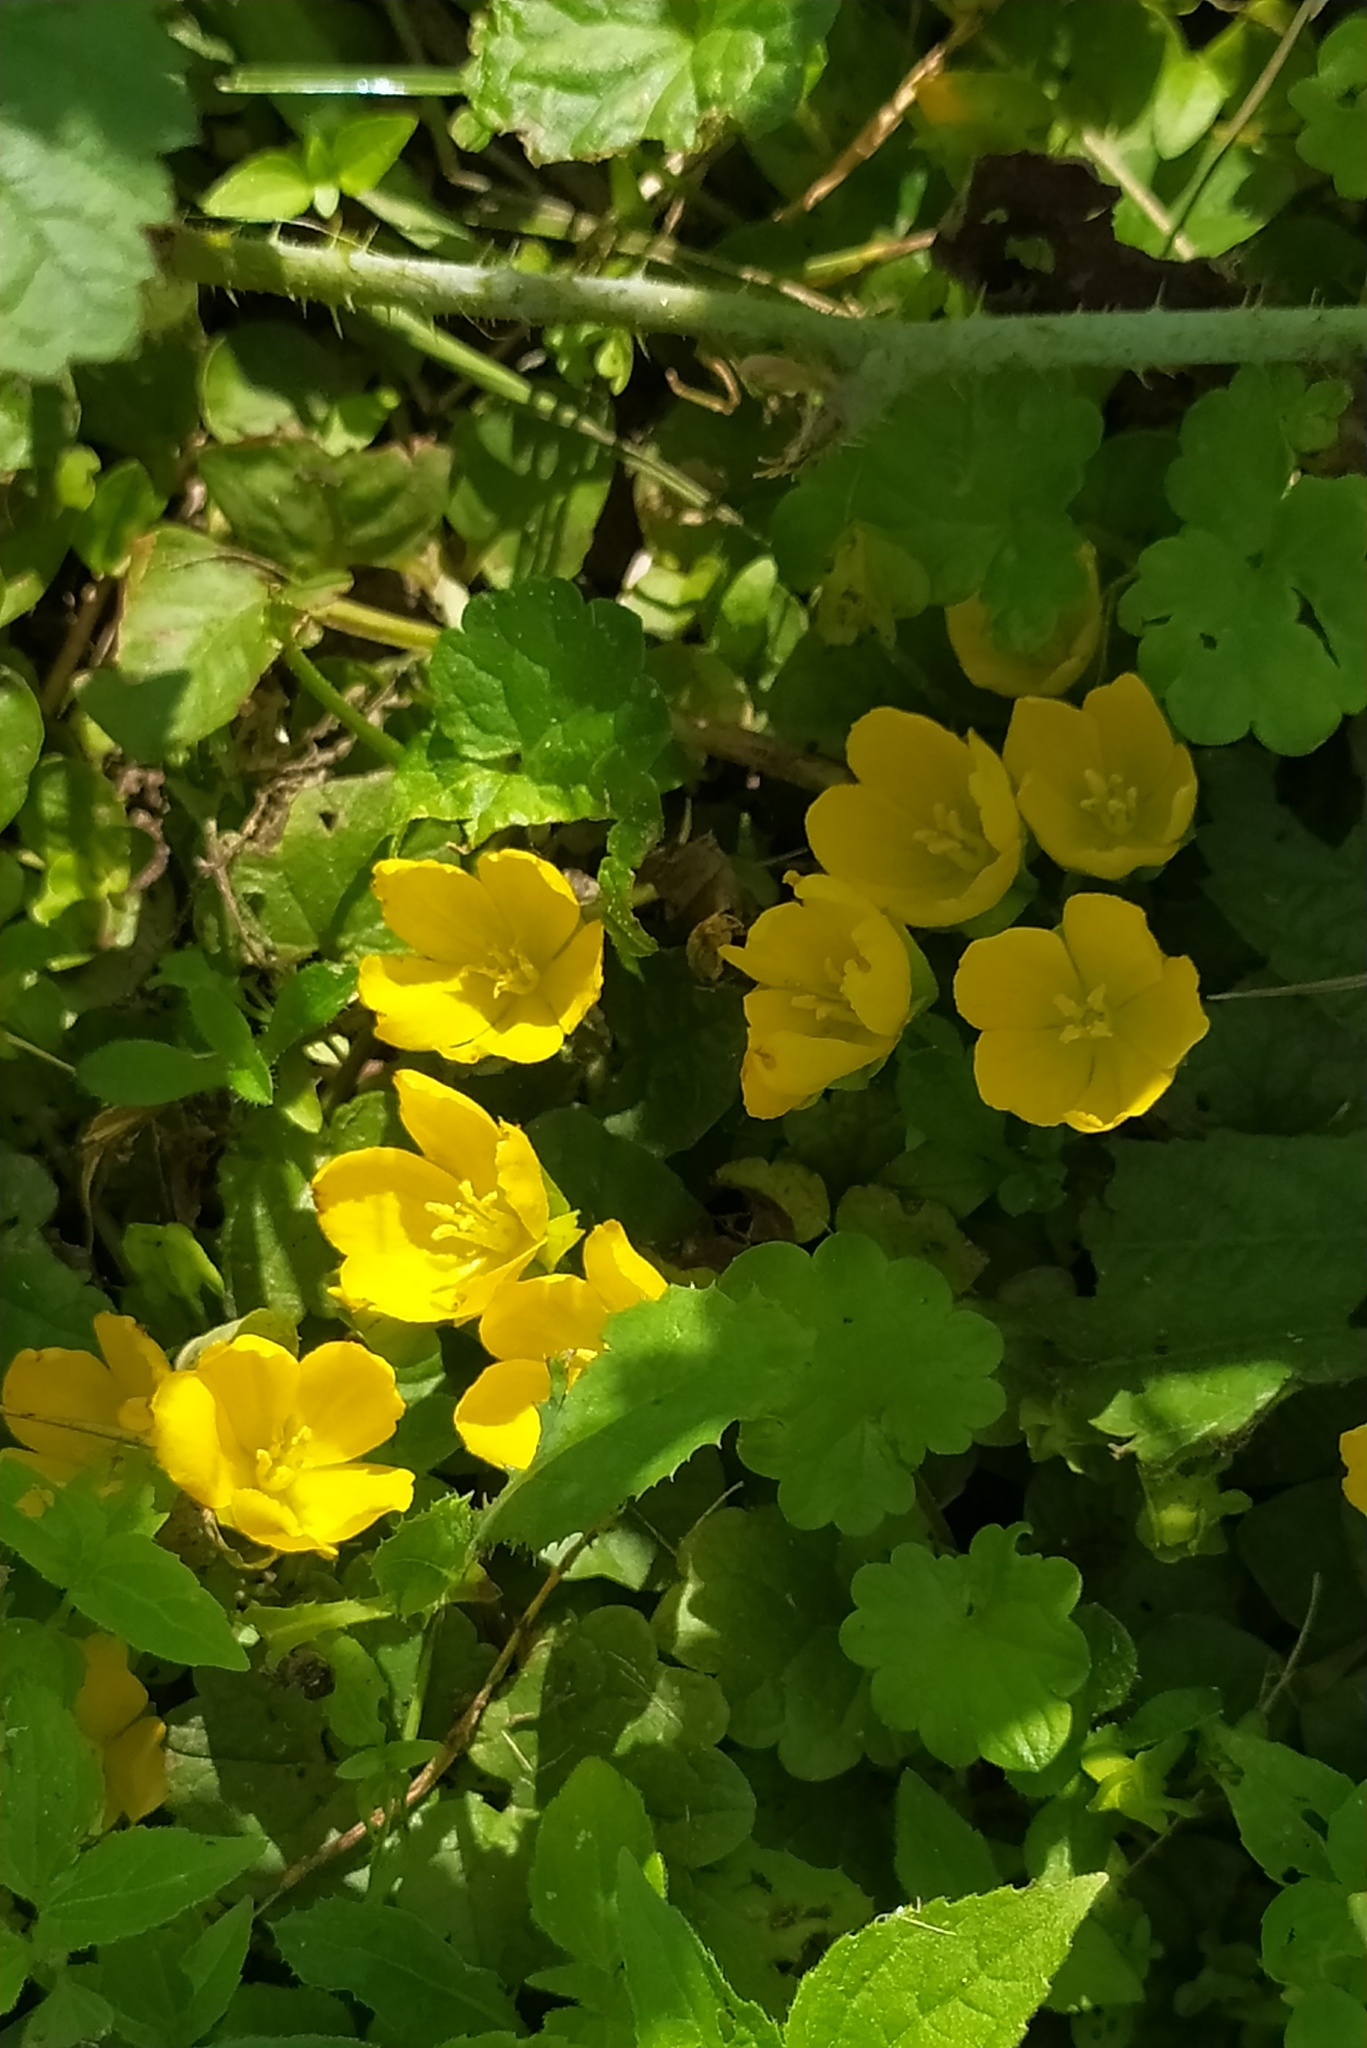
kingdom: Plantae
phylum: Tracheophyta
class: Magnoliopsida
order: Ericales
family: Primulaceae
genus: Lysimachia
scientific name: Lysimachia nummularia
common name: Moneywort
